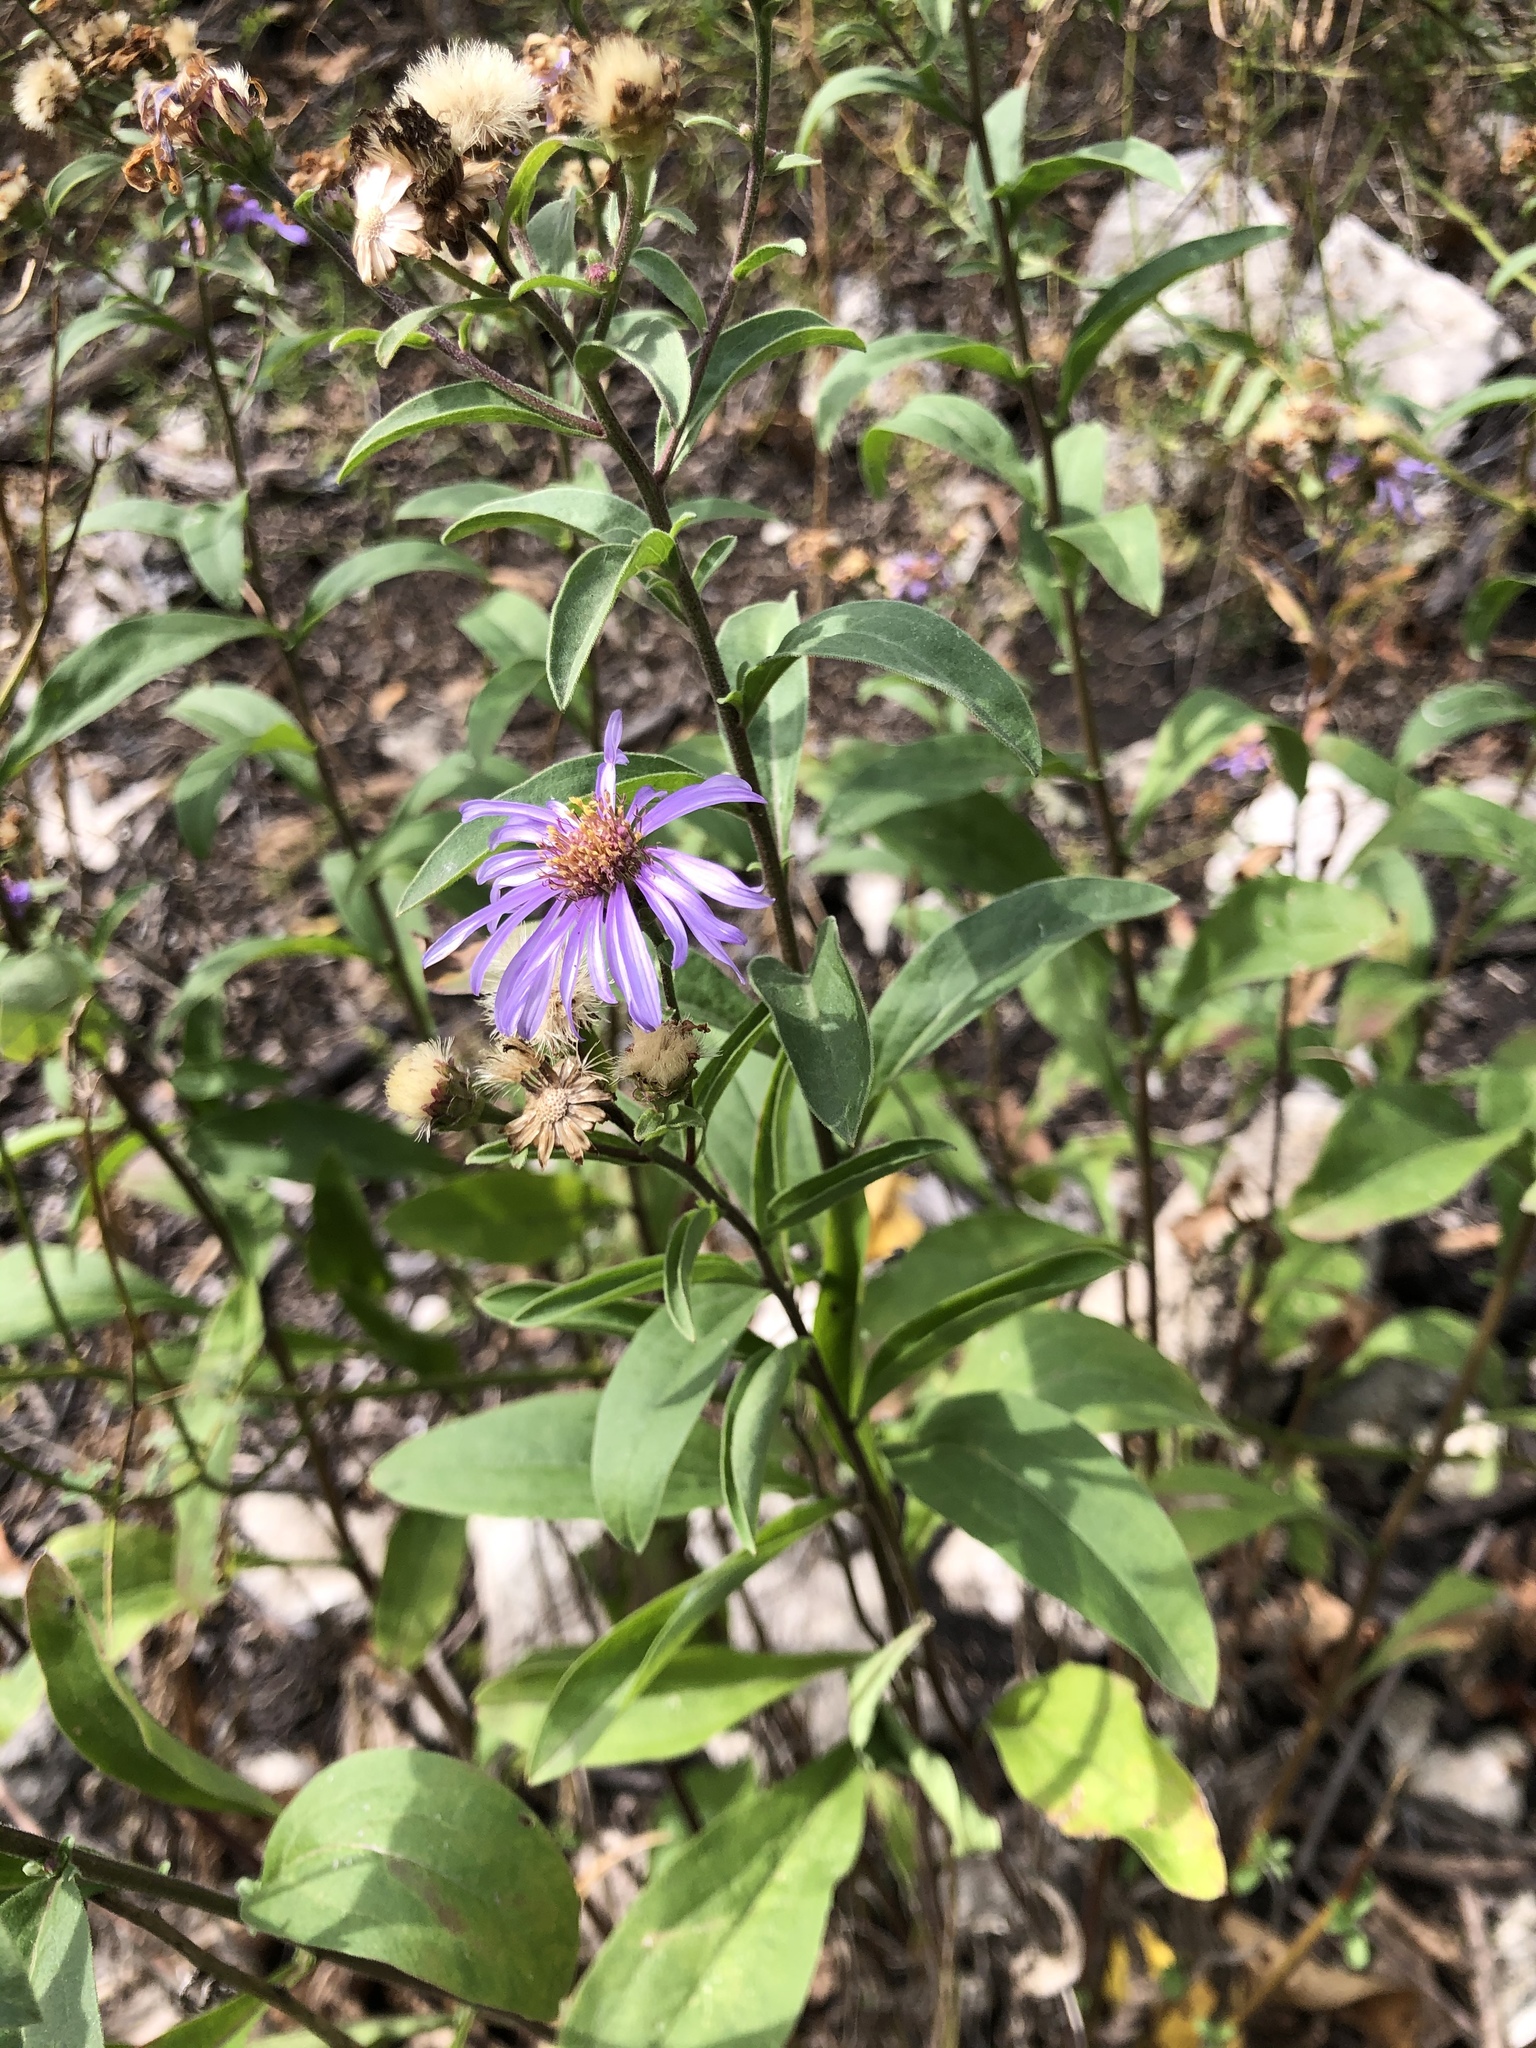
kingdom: Plantae
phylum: Tracheophyta
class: Magnoliopsida
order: Asterales
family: Asteraceae
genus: Aster
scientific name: Aster amellus
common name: European michaelmas daisy
